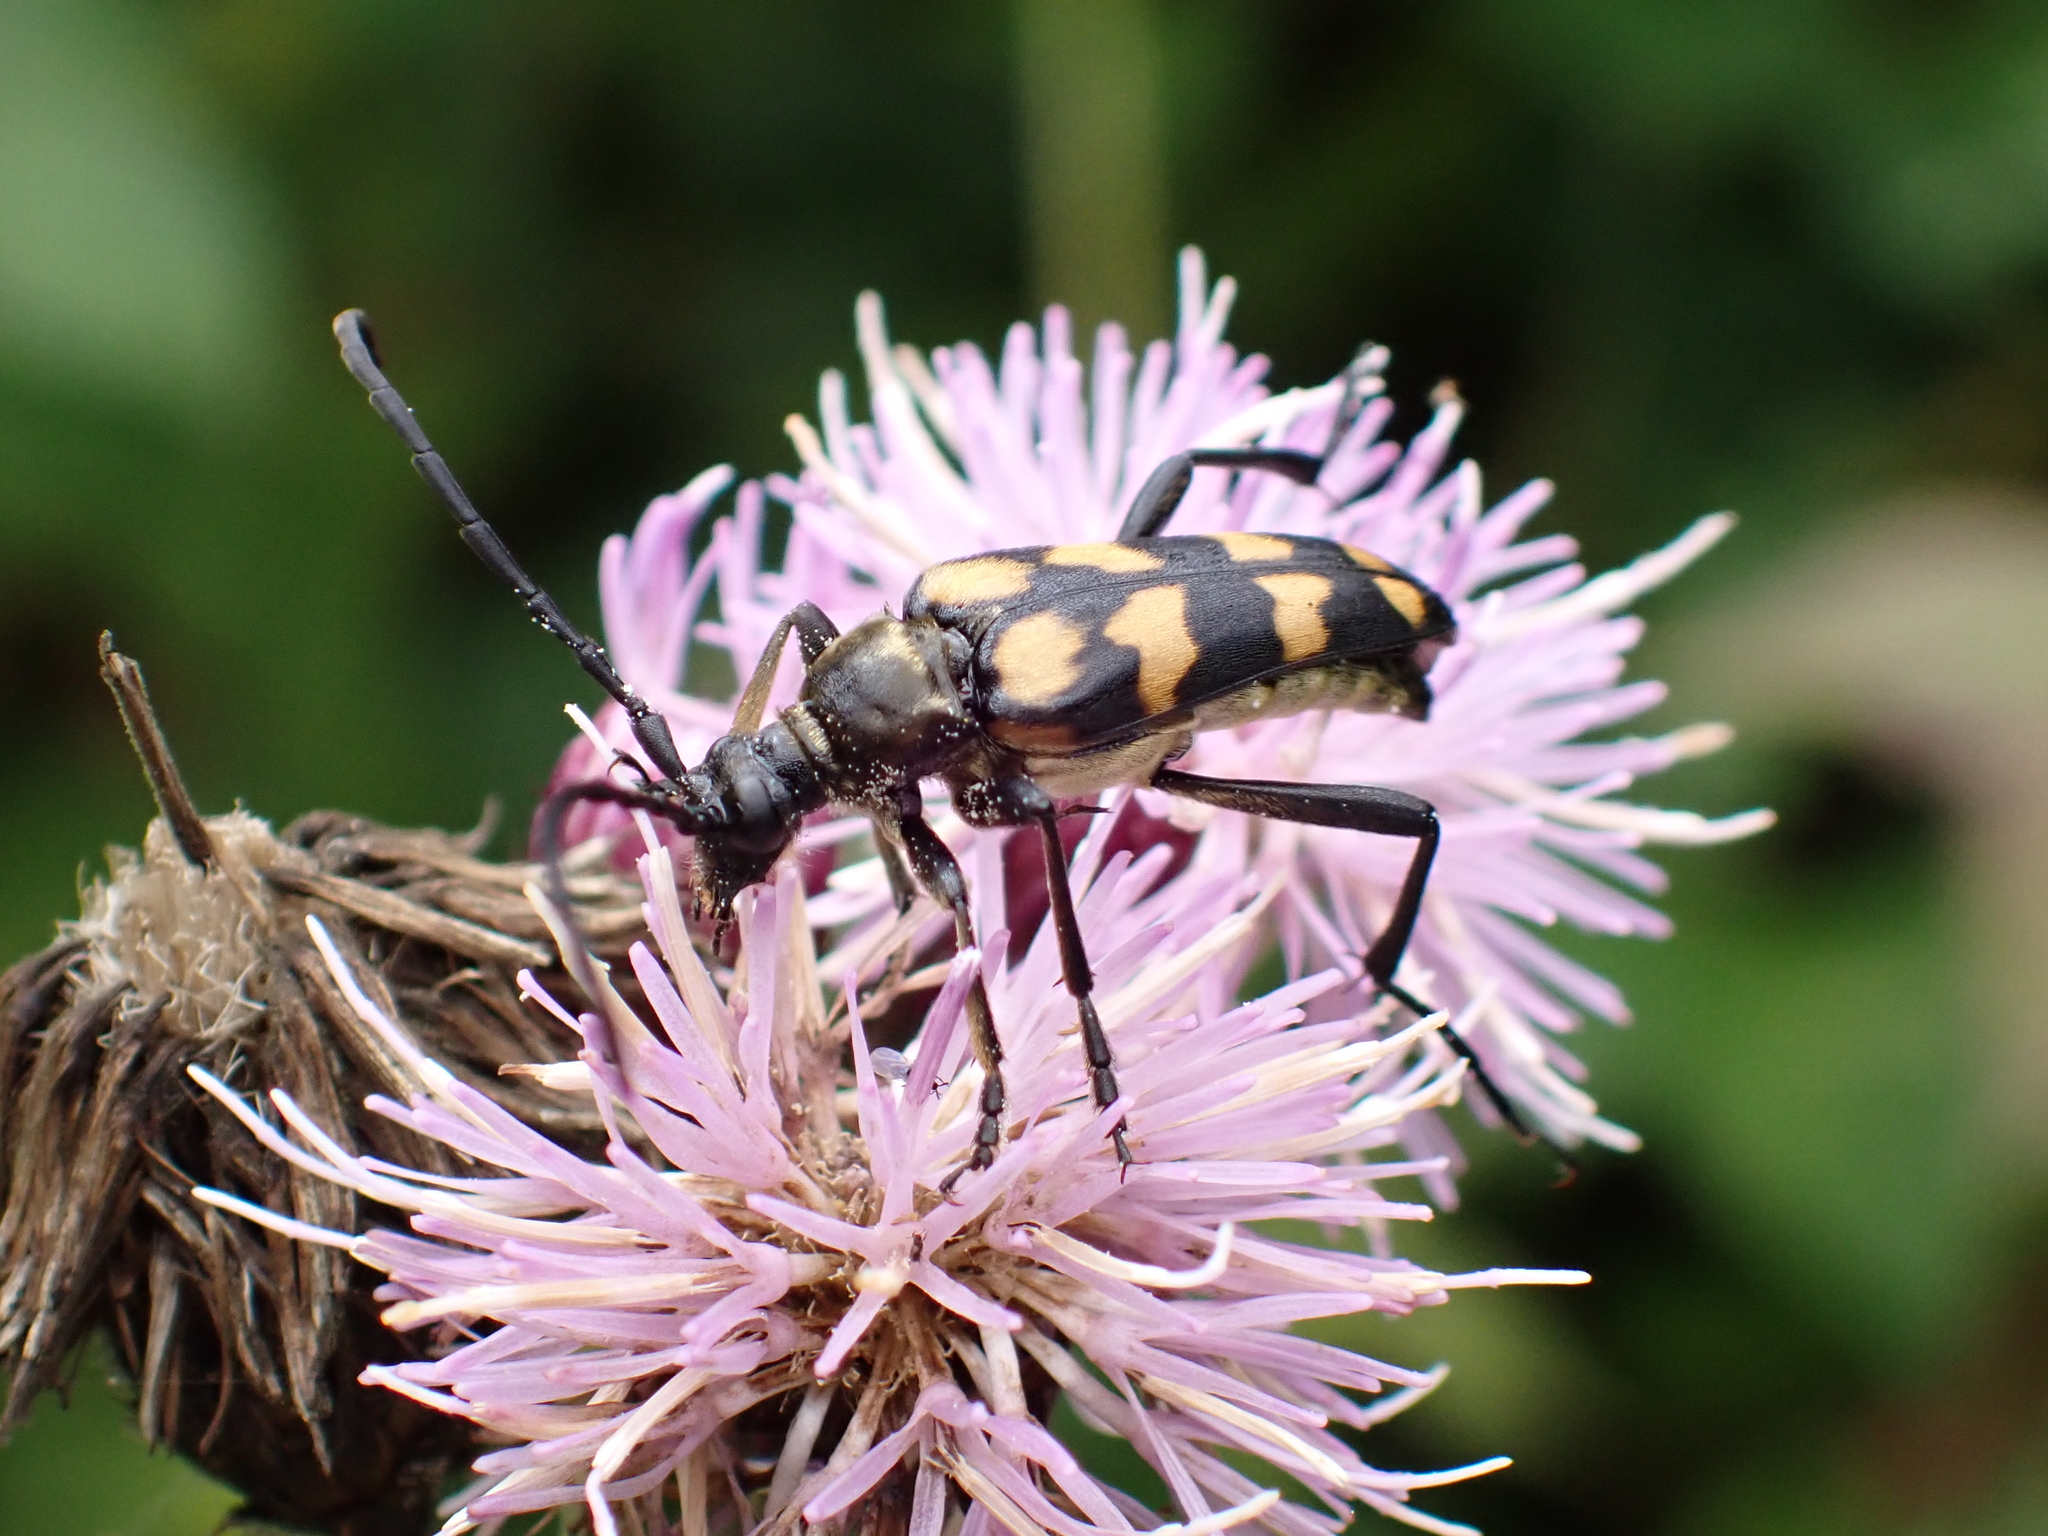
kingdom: Animalia
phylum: Arthropoda
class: Insecta
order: Coleoptera
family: Cerambycidae
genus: Leptura
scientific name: Leptura quadrifasciata
